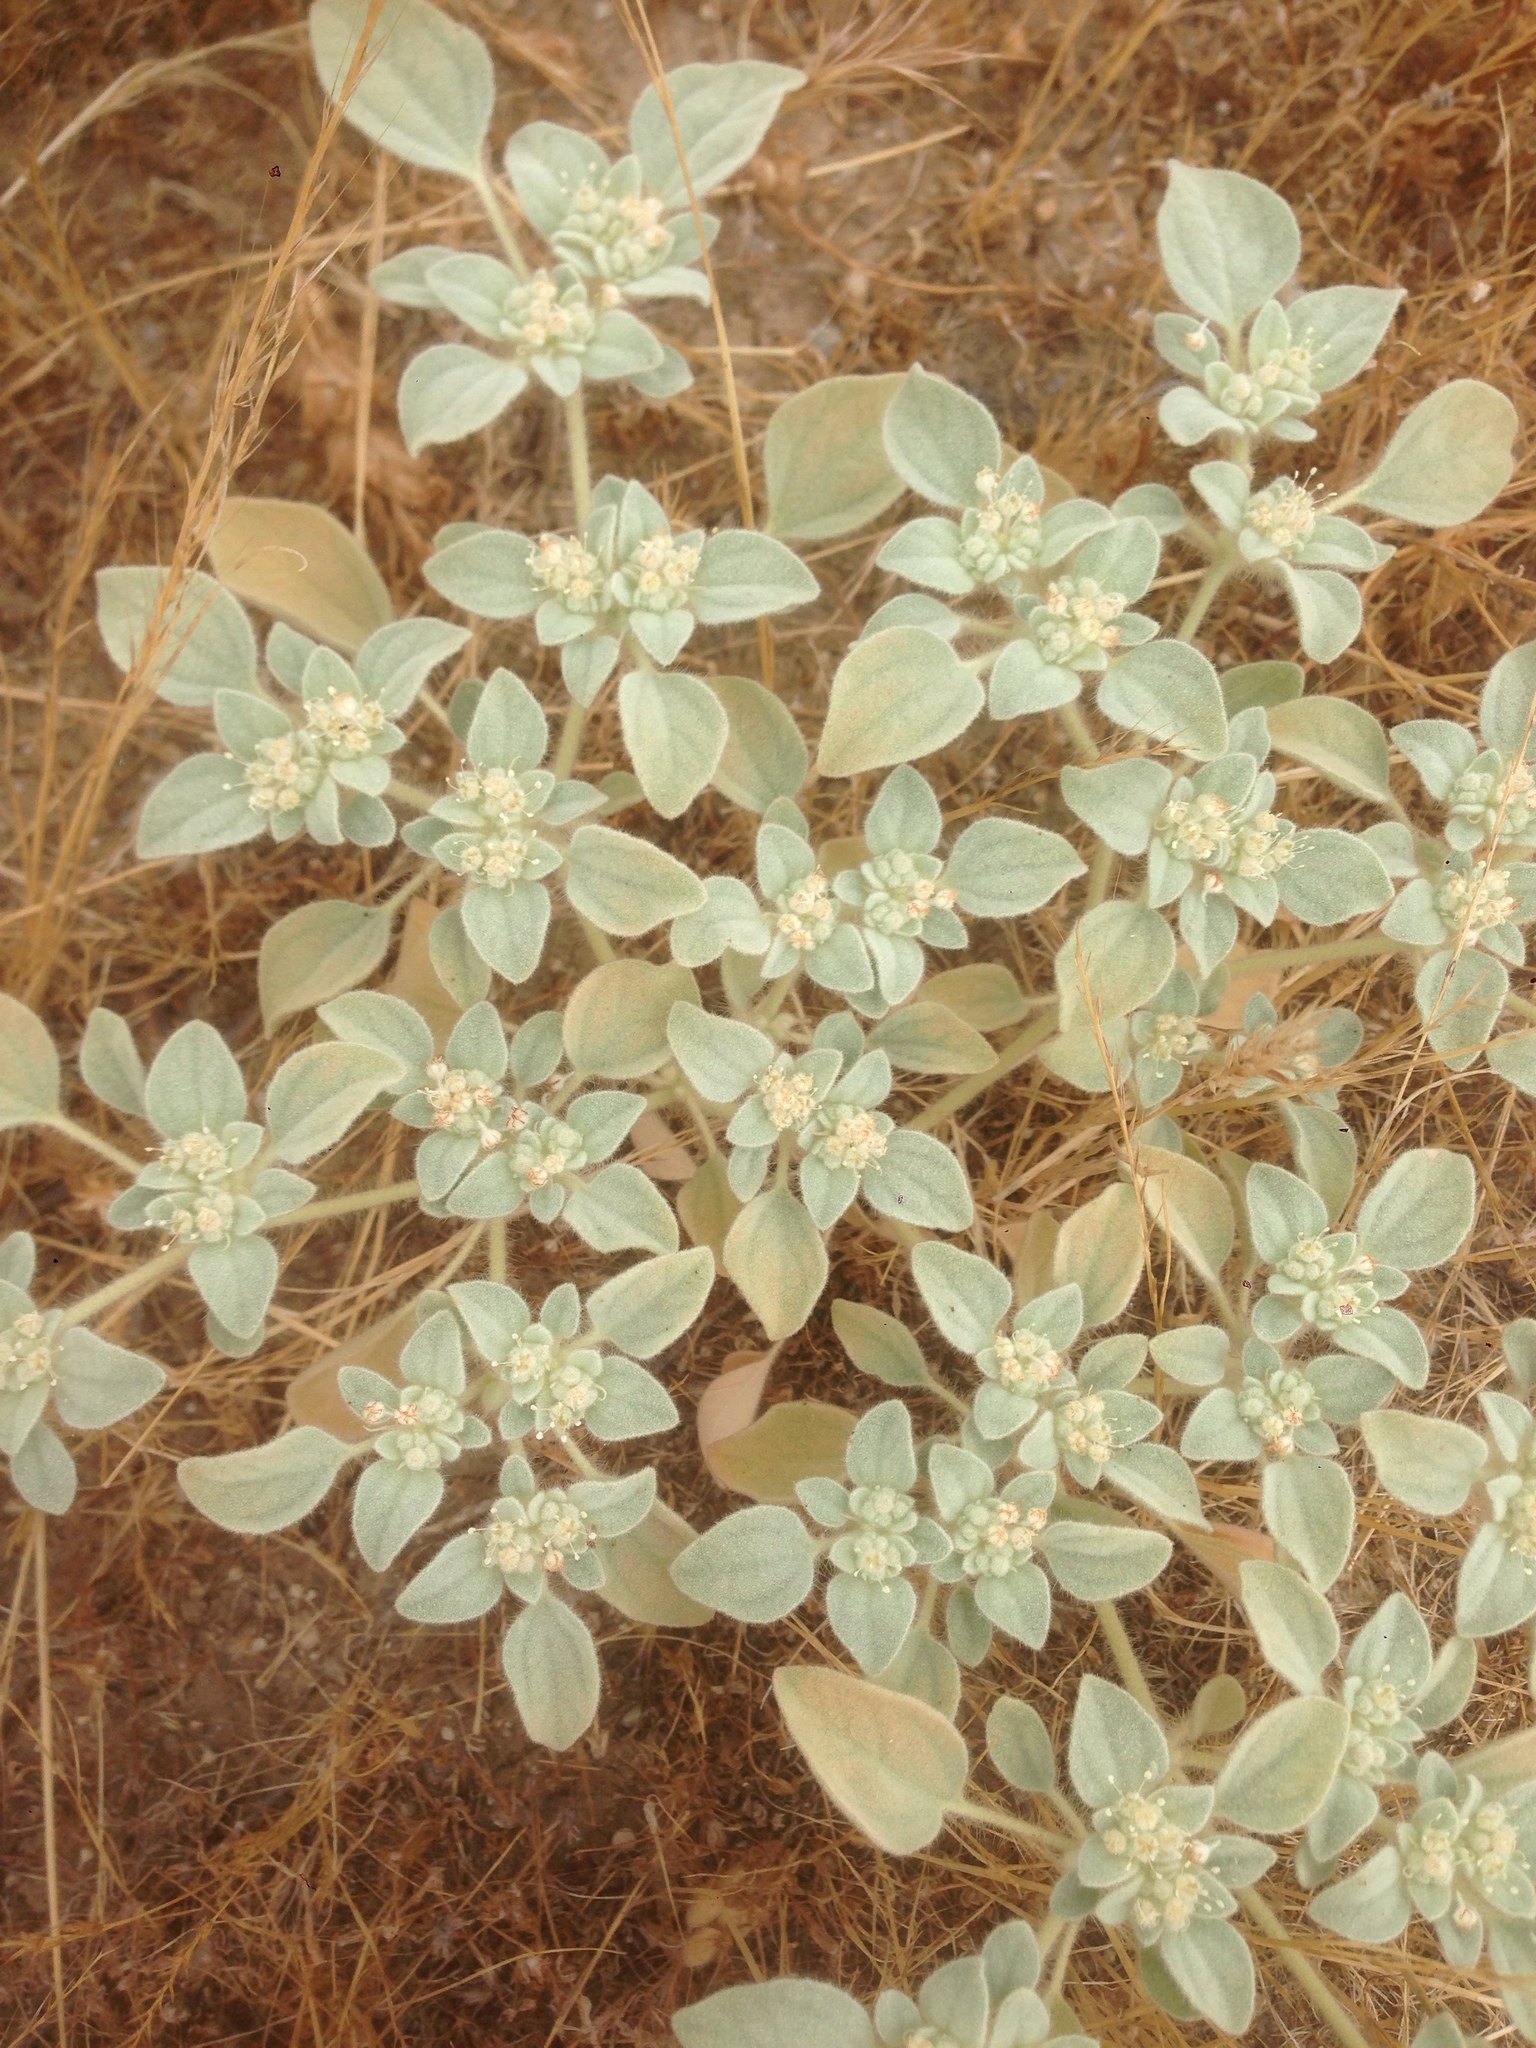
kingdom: Plantae
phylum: Tracheophyta
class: Magnoliopsida
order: Malpighiales
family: Euphorbiaceae
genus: Croton
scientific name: Croton setiger
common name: Dove weed
